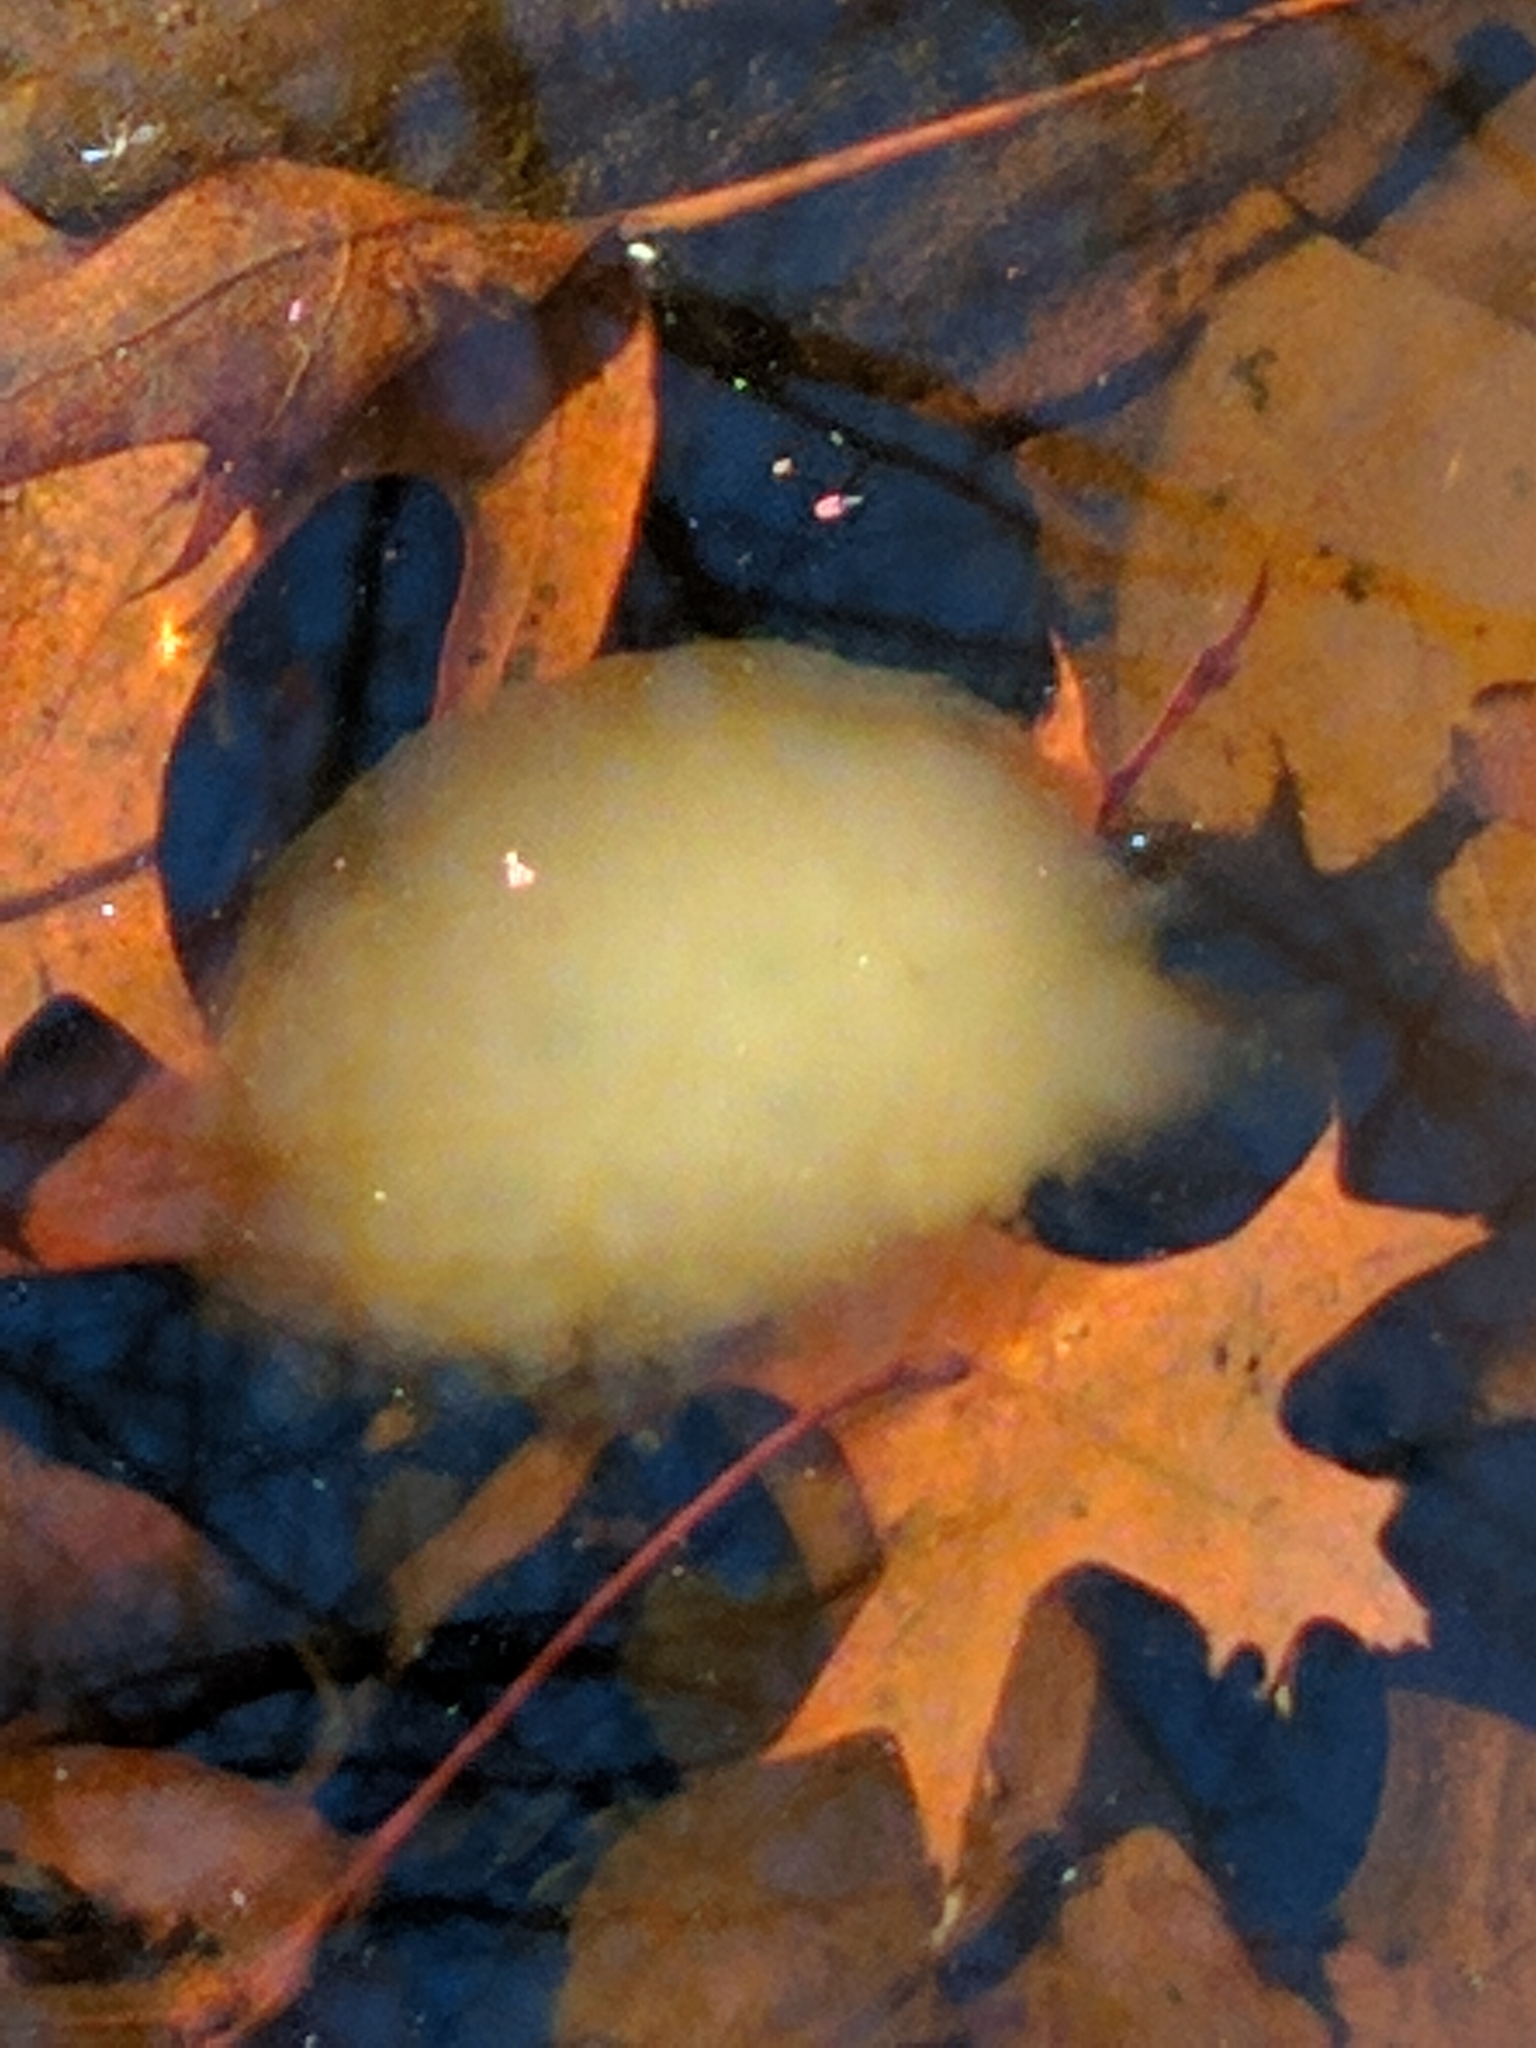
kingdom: Animalia
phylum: Chordata
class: Amphibia
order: Caudata
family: Ambystomatidae
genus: Ambystoma
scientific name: Ambystoma maculatum
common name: Spotted salamander
